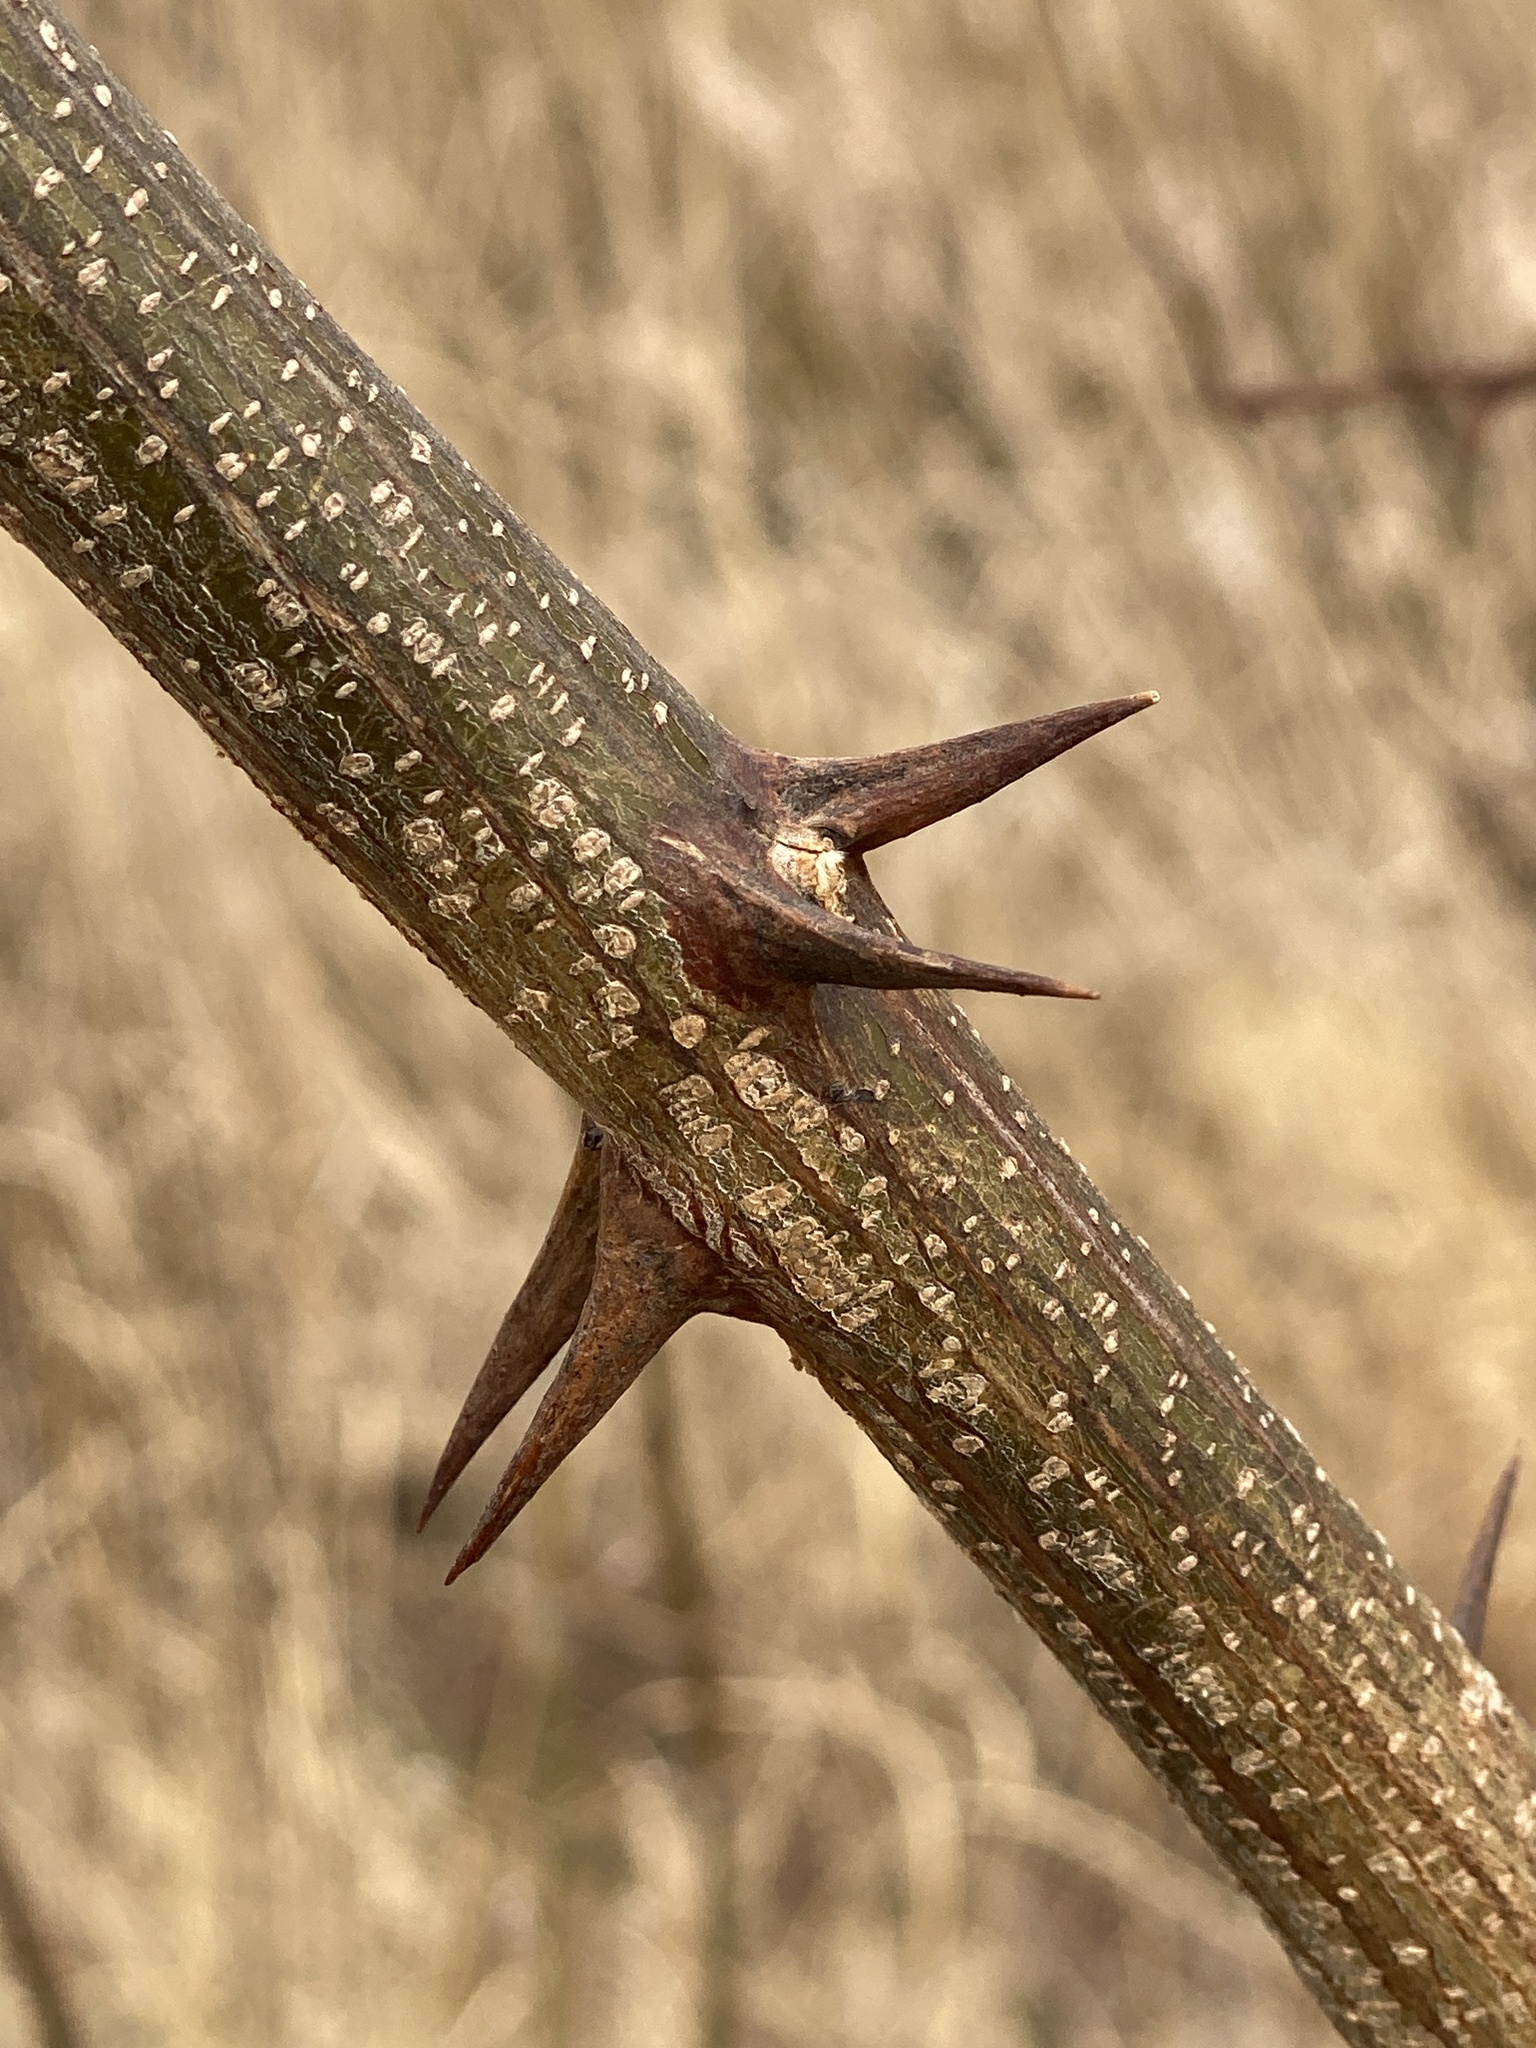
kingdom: Plantae
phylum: Tracheophyta
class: Magnoliopsida
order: Fabales
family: Fabaceae
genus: Robinia
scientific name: Robinia pseudoacacia
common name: Black locust
